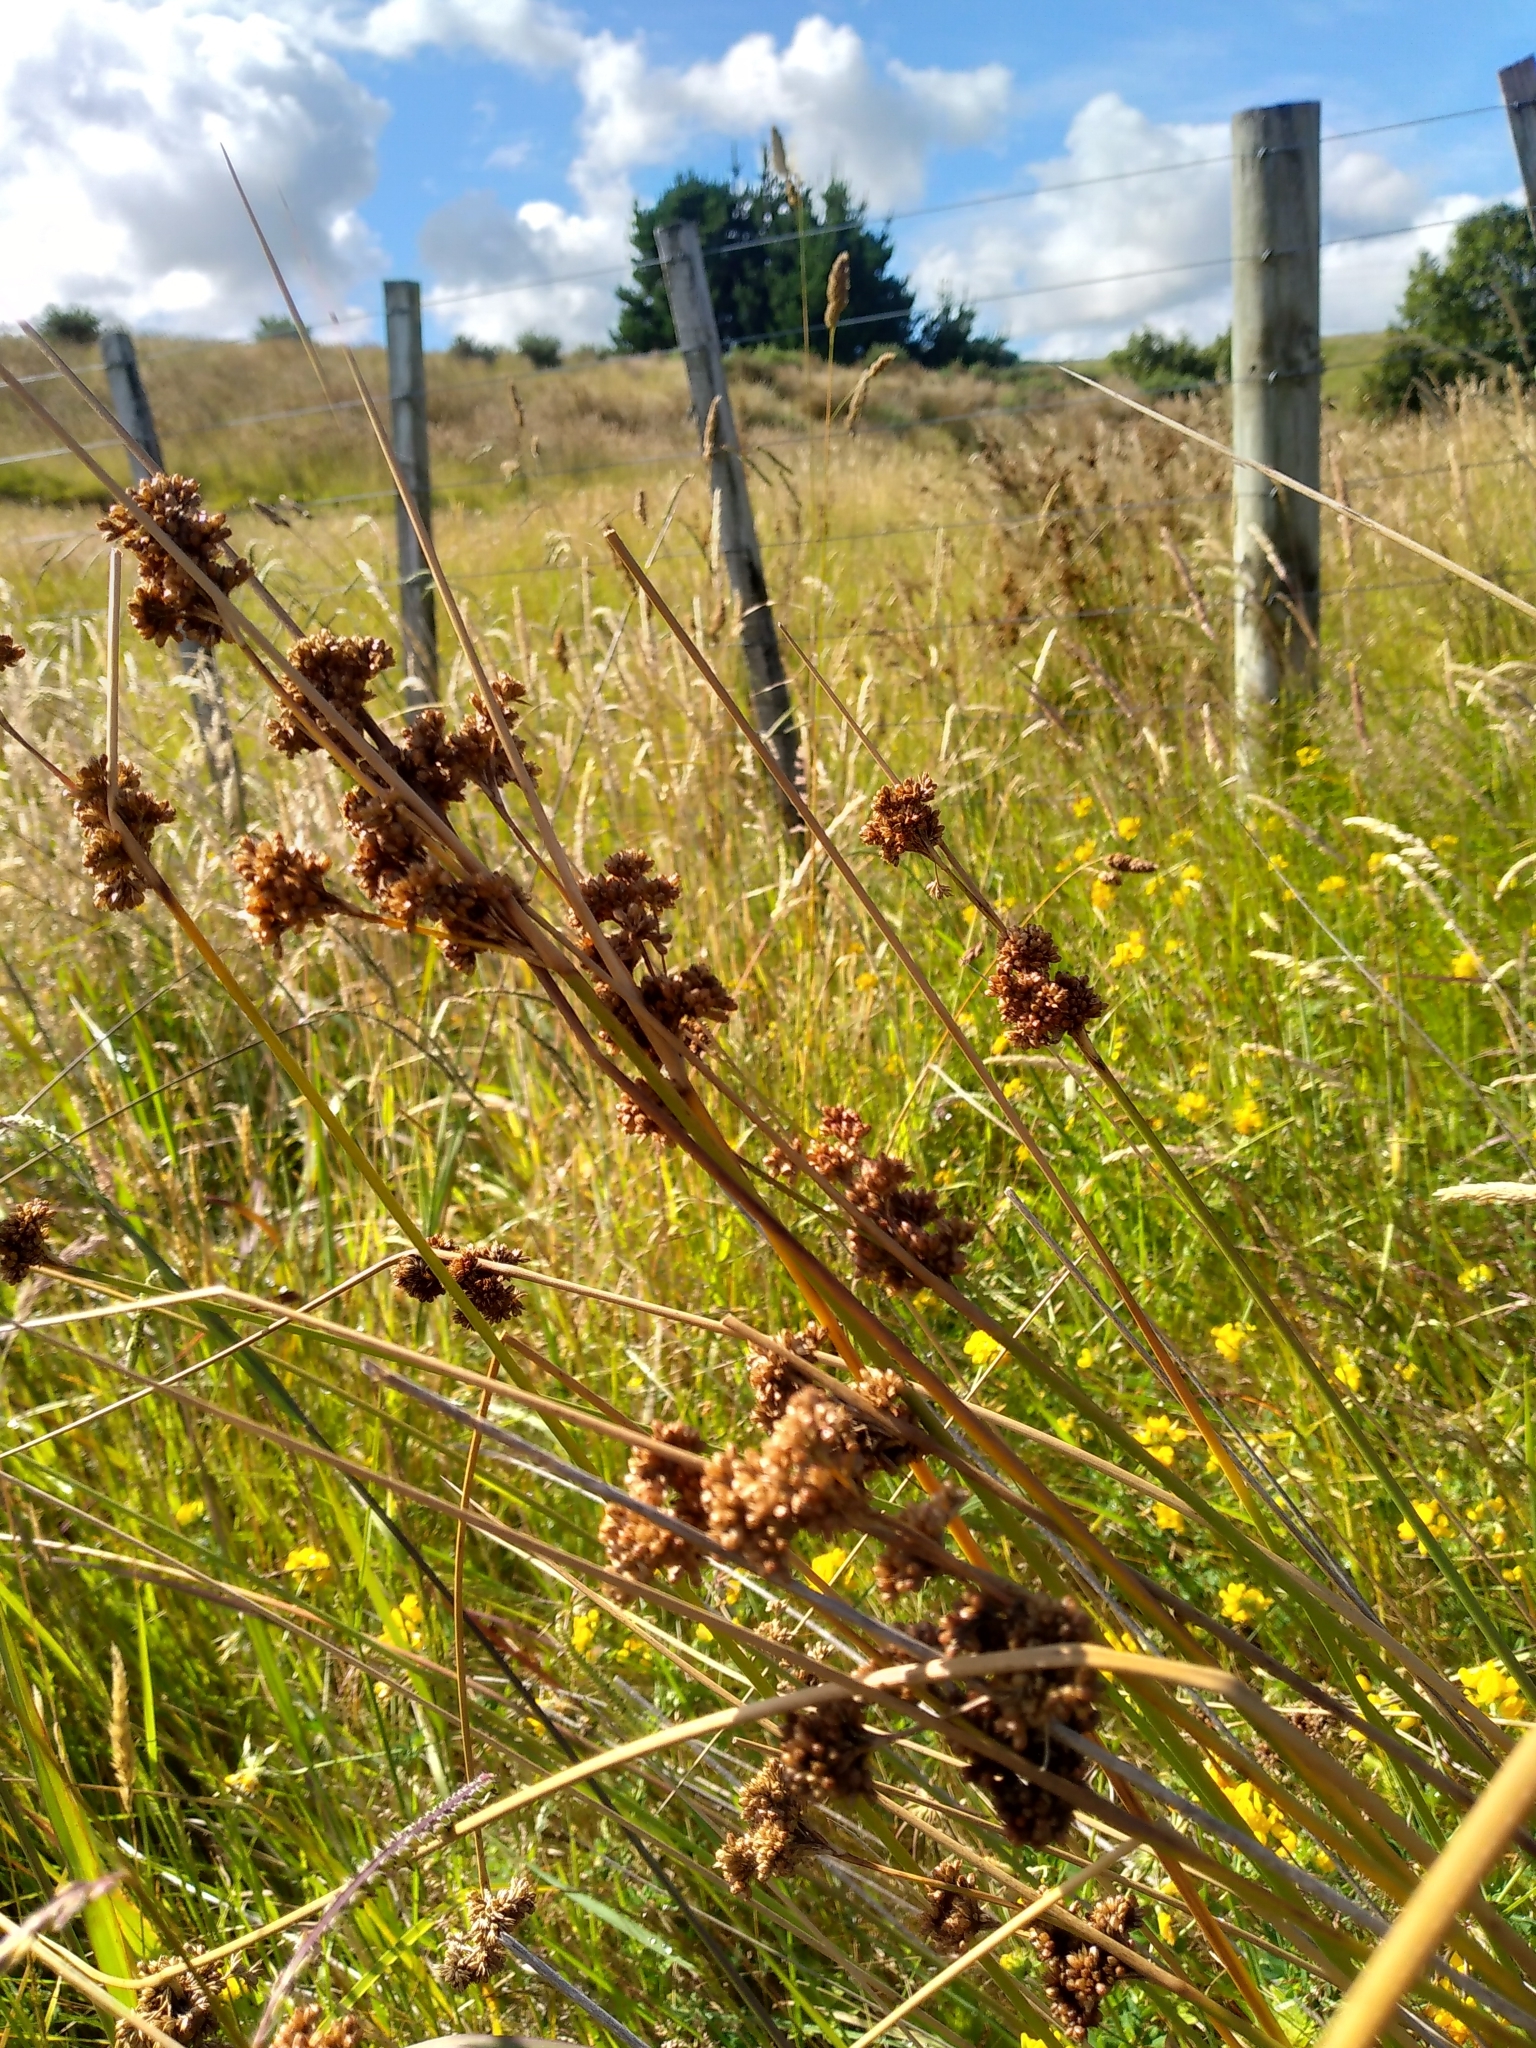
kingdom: Plantae
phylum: Tracheophyta
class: Liliopsida
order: Poales
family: Juncaceae
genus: Juncus
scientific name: Juncus australis
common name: Austral rush
